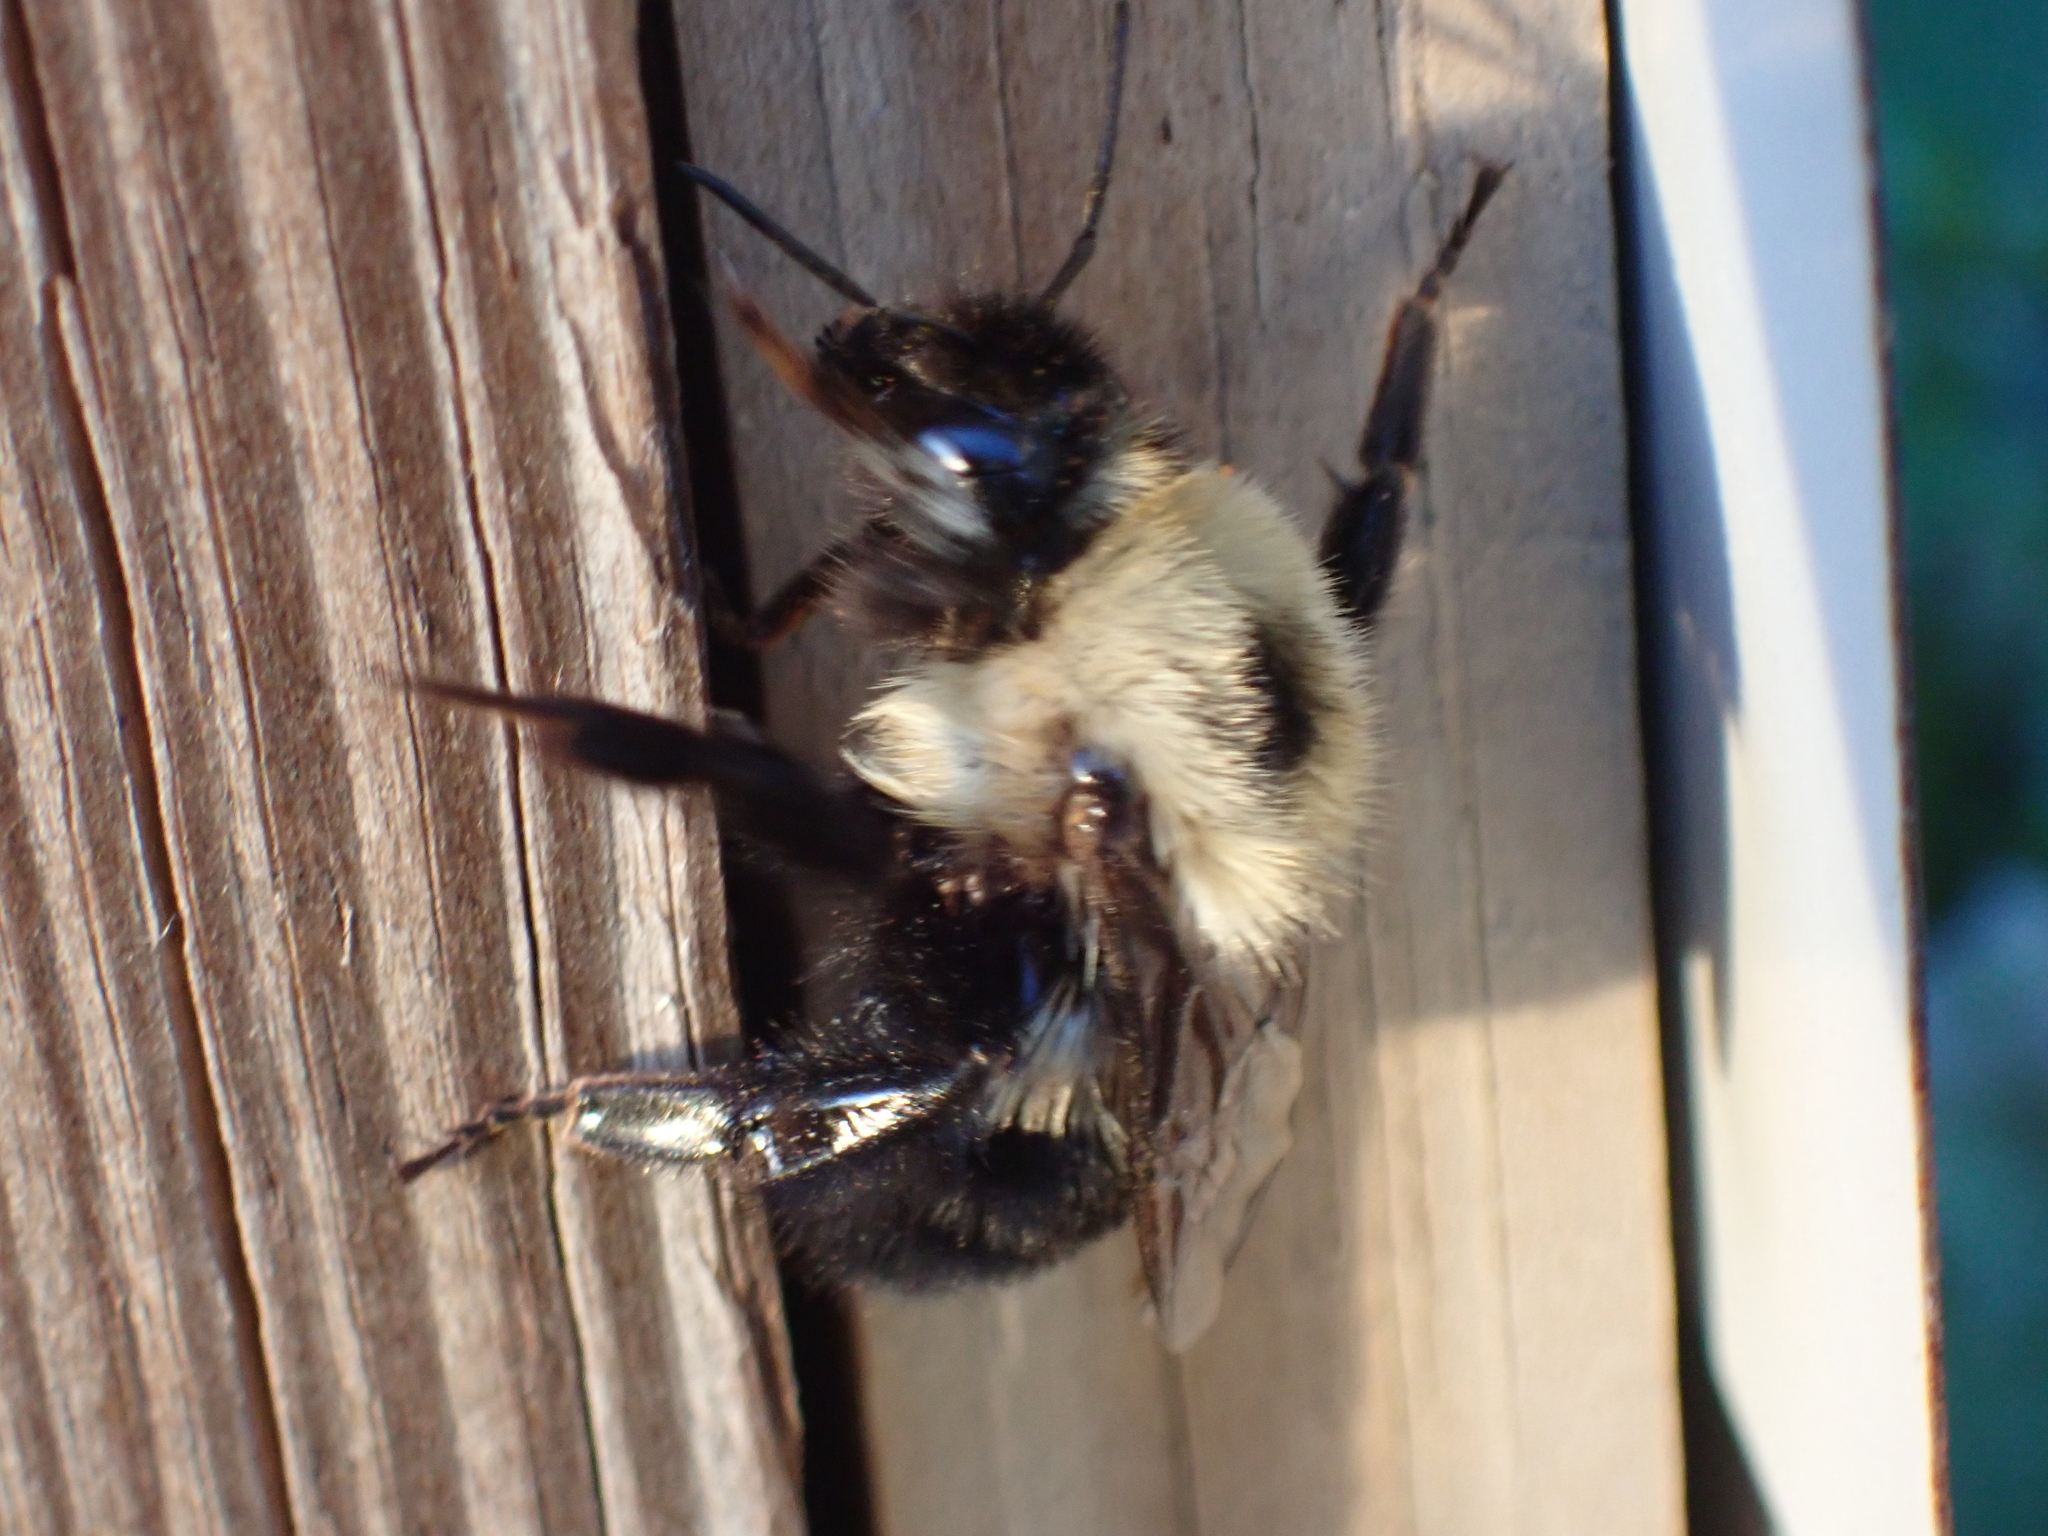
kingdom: Animalia
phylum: Arthropoda
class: Insecta
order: Hymenoptera
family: Apidae
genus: Bombus
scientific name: Bombus bimaculatus
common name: Two-spotted bumble bee
